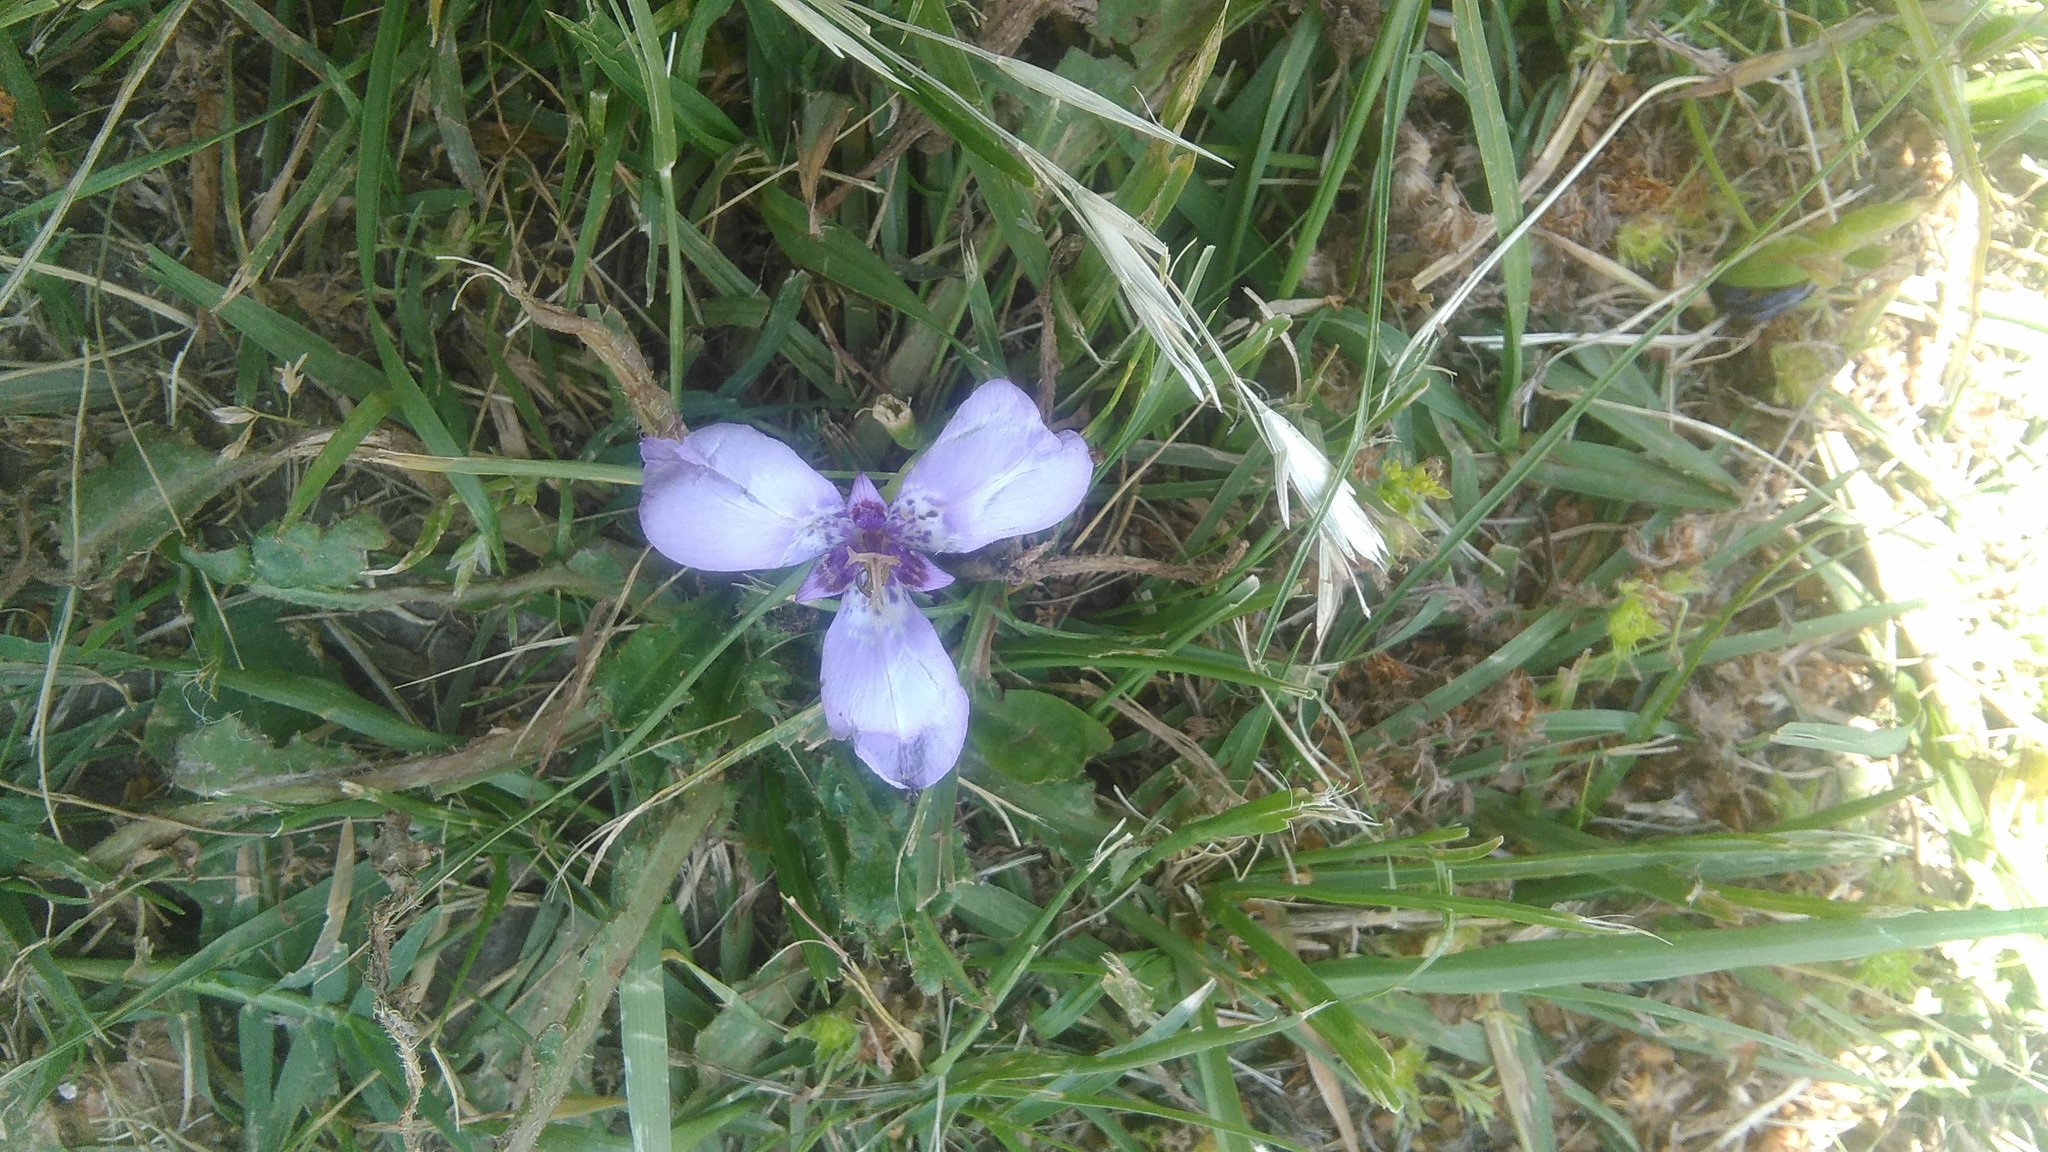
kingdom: Plantae
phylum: Tracheophyta
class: Liliopsida
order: Asparagales
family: Iridaceae
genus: Herbertia
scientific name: Herbertia lahue
